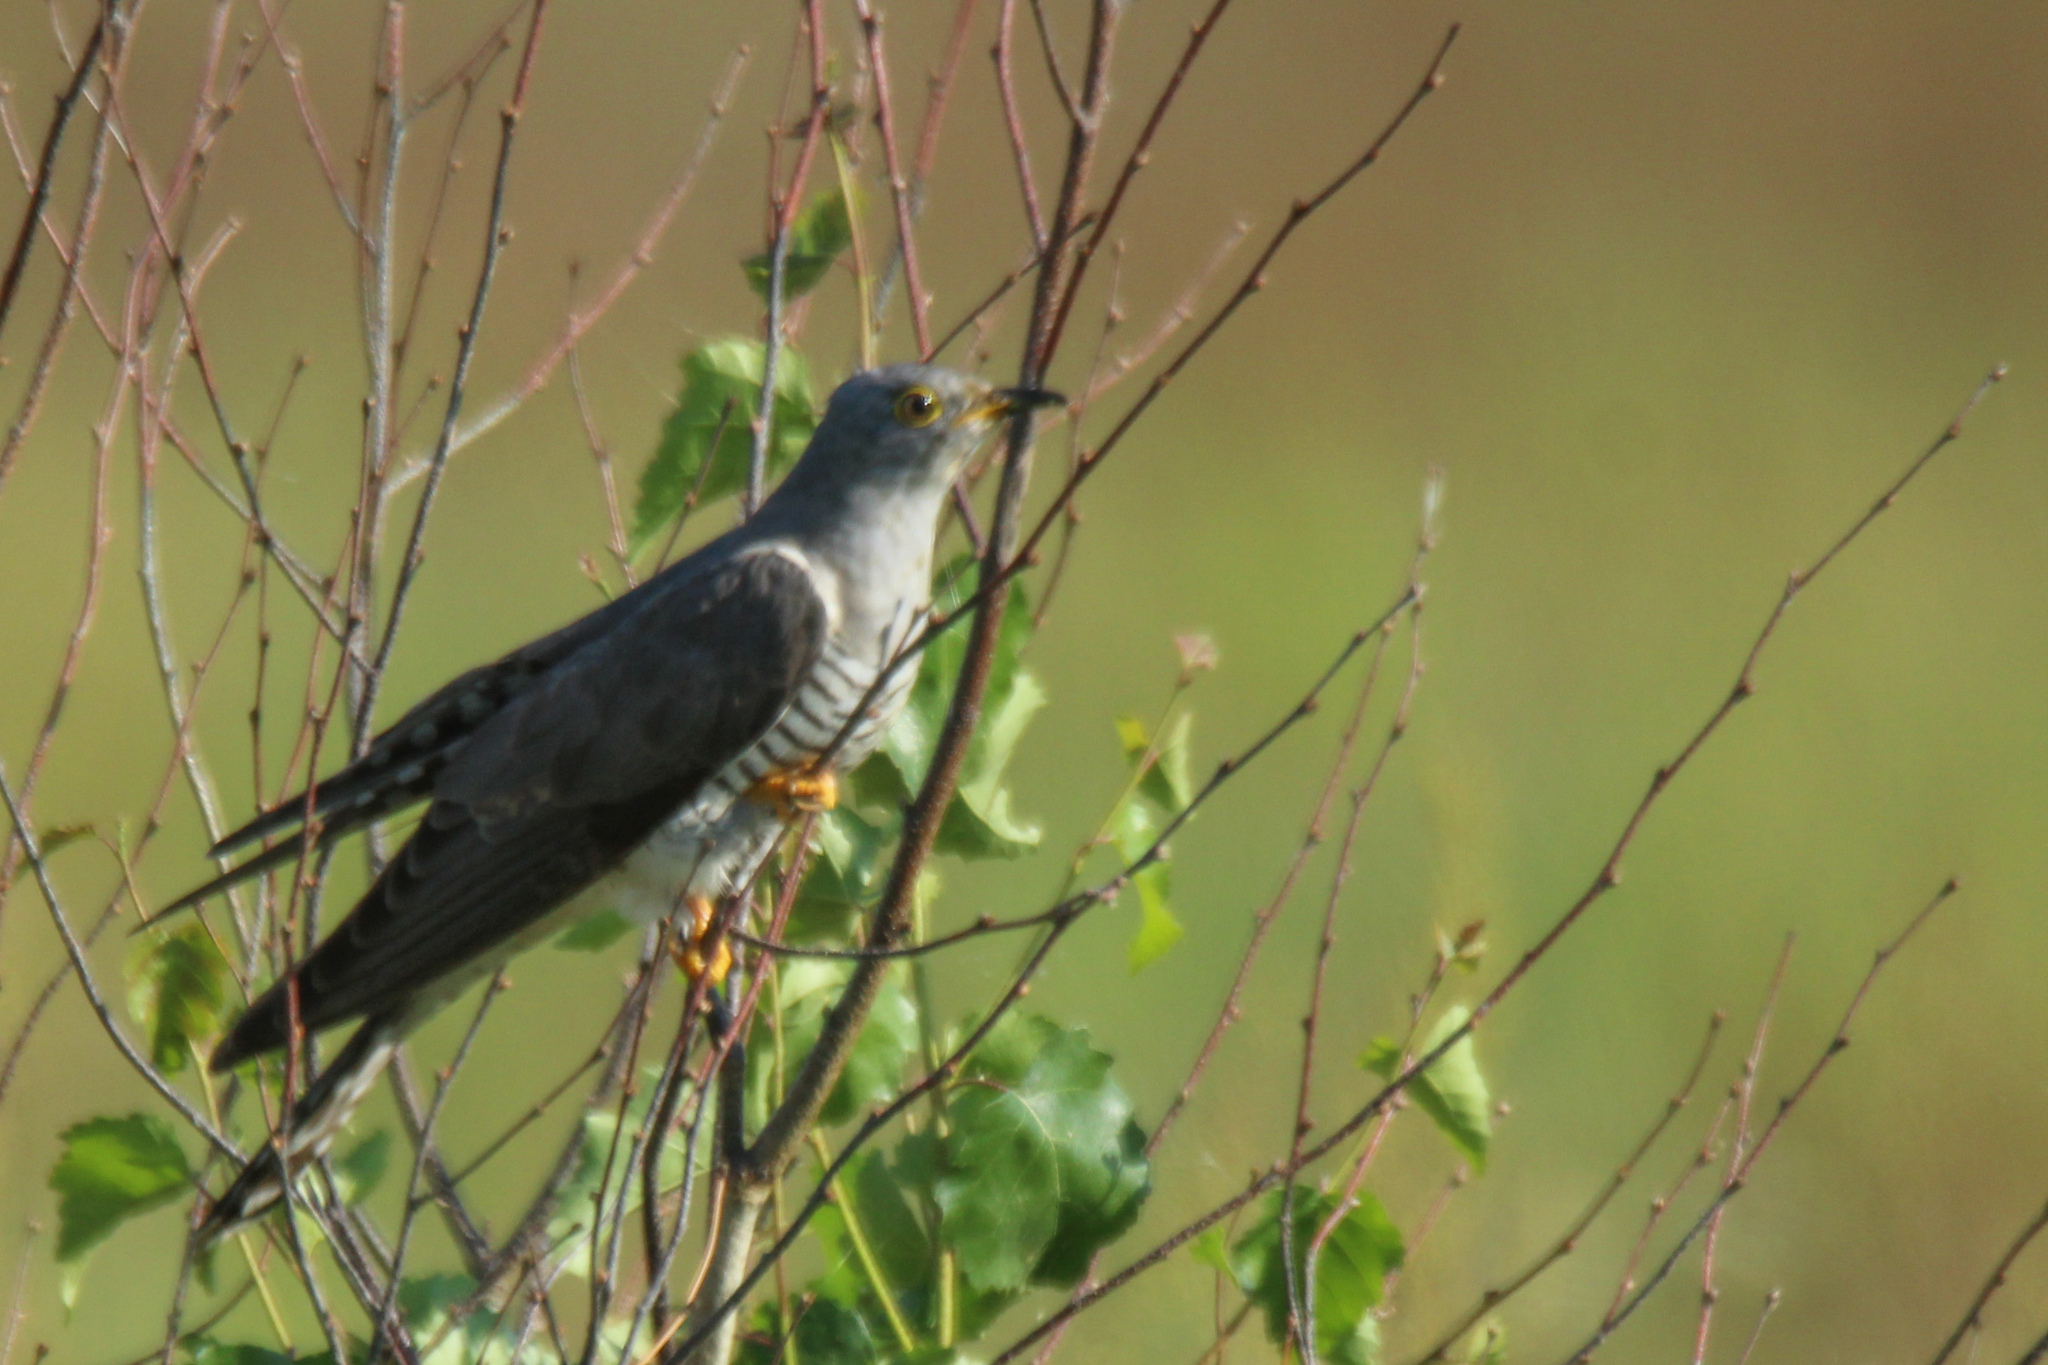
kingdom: Animalia
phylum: Chordata
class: Aves
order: Cuculiformes
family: Cuculidae
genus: Cuculus
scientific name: Cuculus canorus
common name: Common cuckoo
